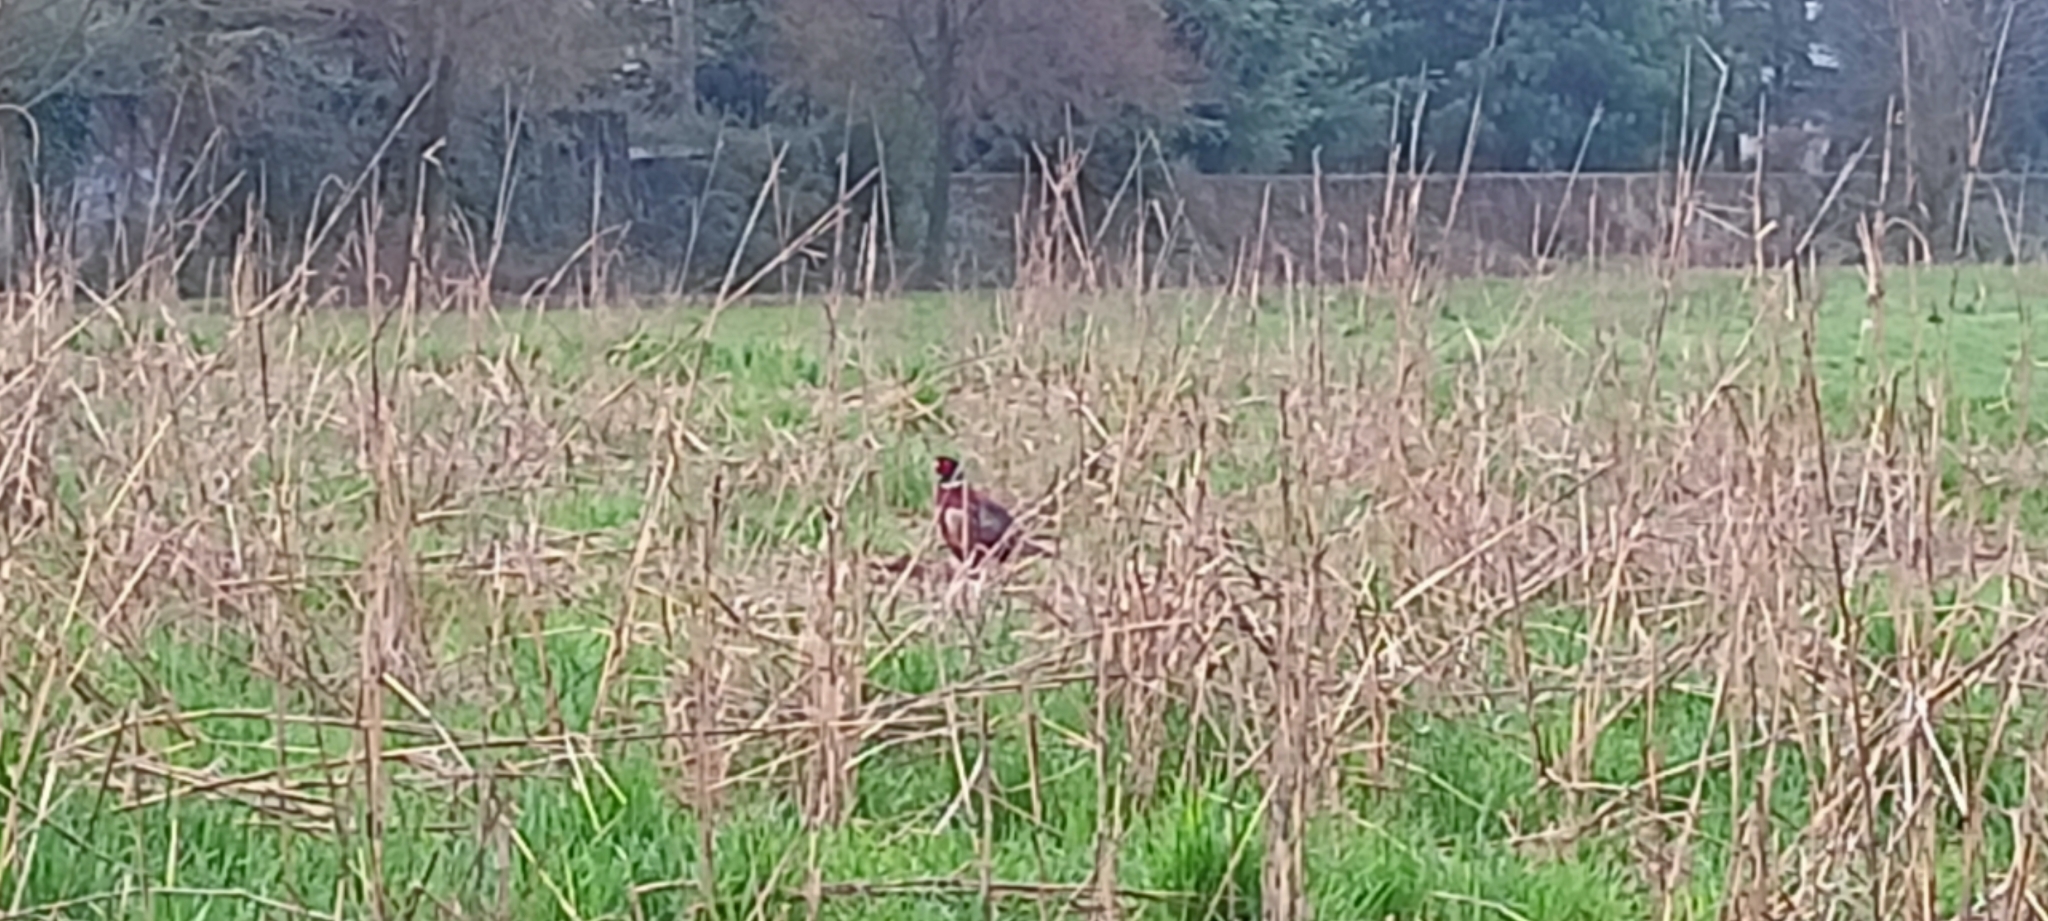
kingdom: Animalia
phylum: Chordata
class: Aves
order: Galliformes
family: Phasianidae
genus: Phasianus
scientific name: Phasianus colchicus
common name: Common pheasant
